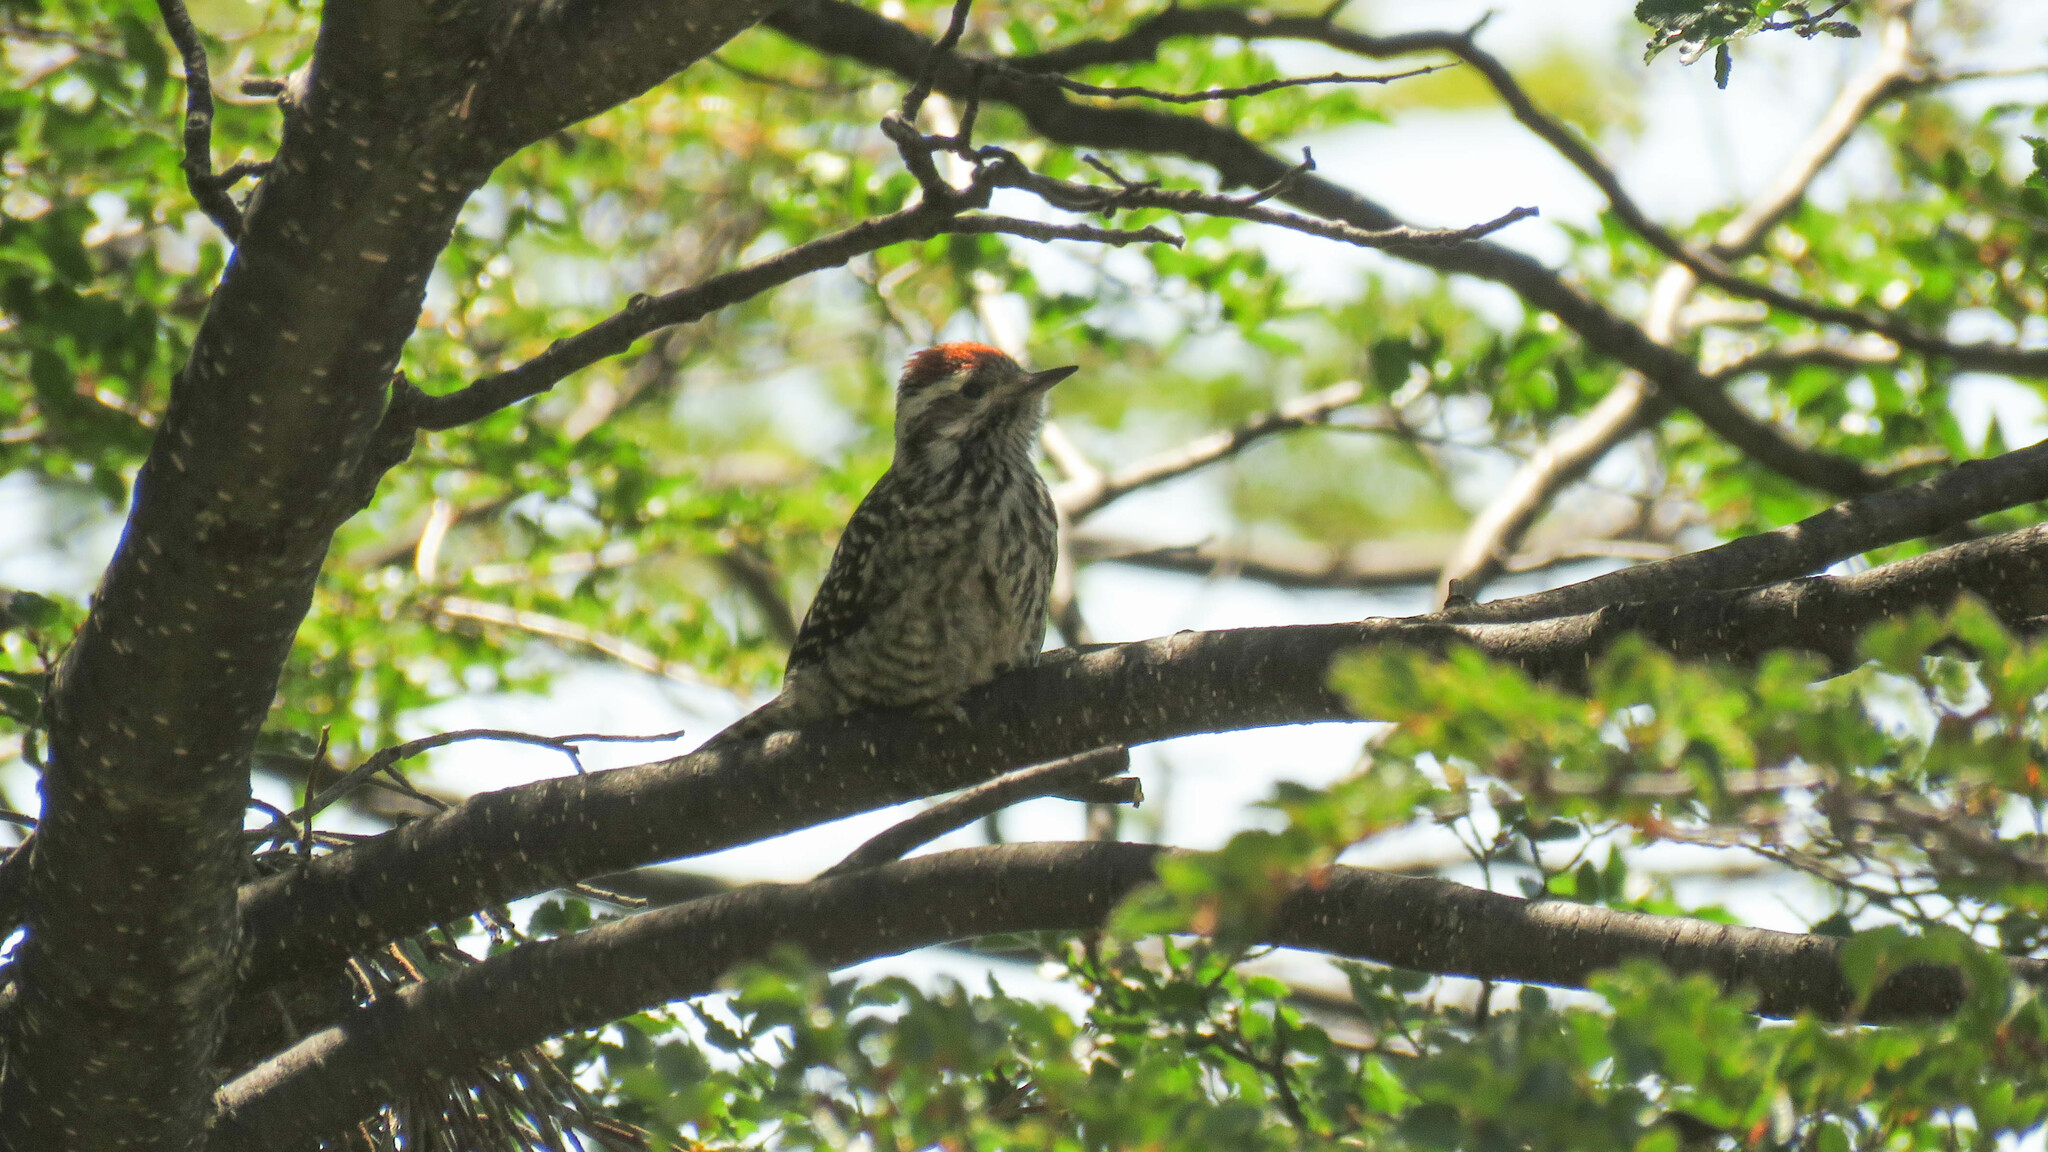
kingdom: Animalia
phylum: Chordata
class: Aves
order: Piciformes
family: Picidae
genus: Veniliornis
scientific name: Veniliornis lignarius
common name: Striped woodpecker
